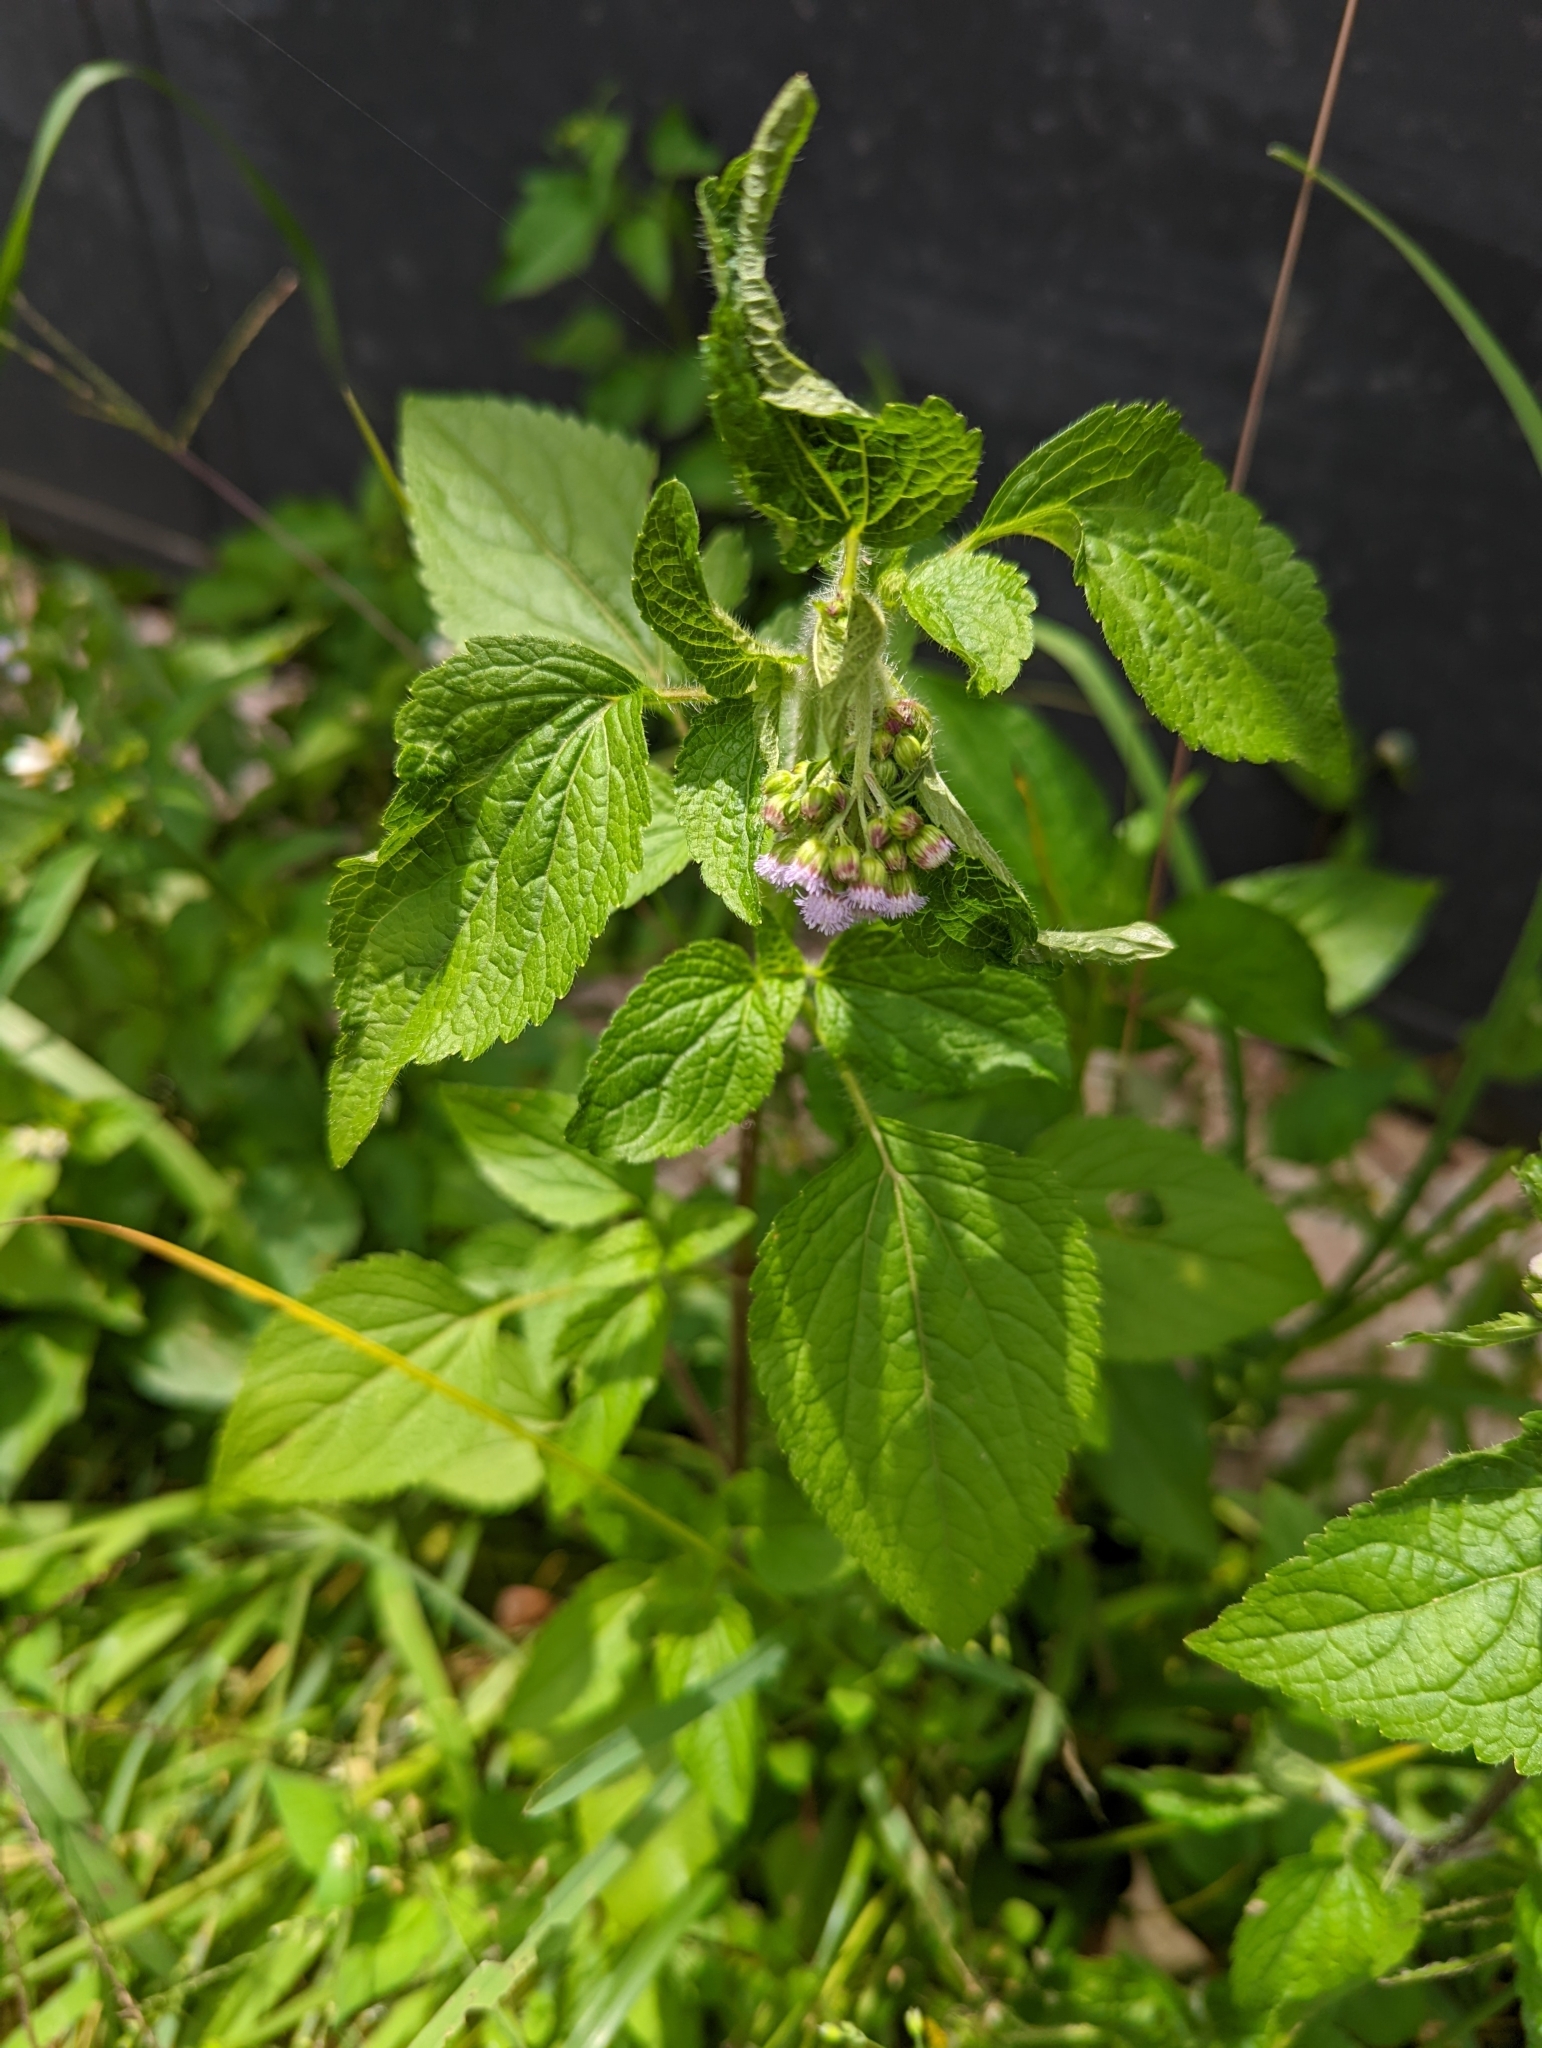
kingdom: Plantae
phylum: Tracheophyta
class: Magnoliopsida
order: Asterales
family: Asteraceae
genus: Ageratum
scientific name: Ageratum conyzoides
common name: Tropical whiteweed
